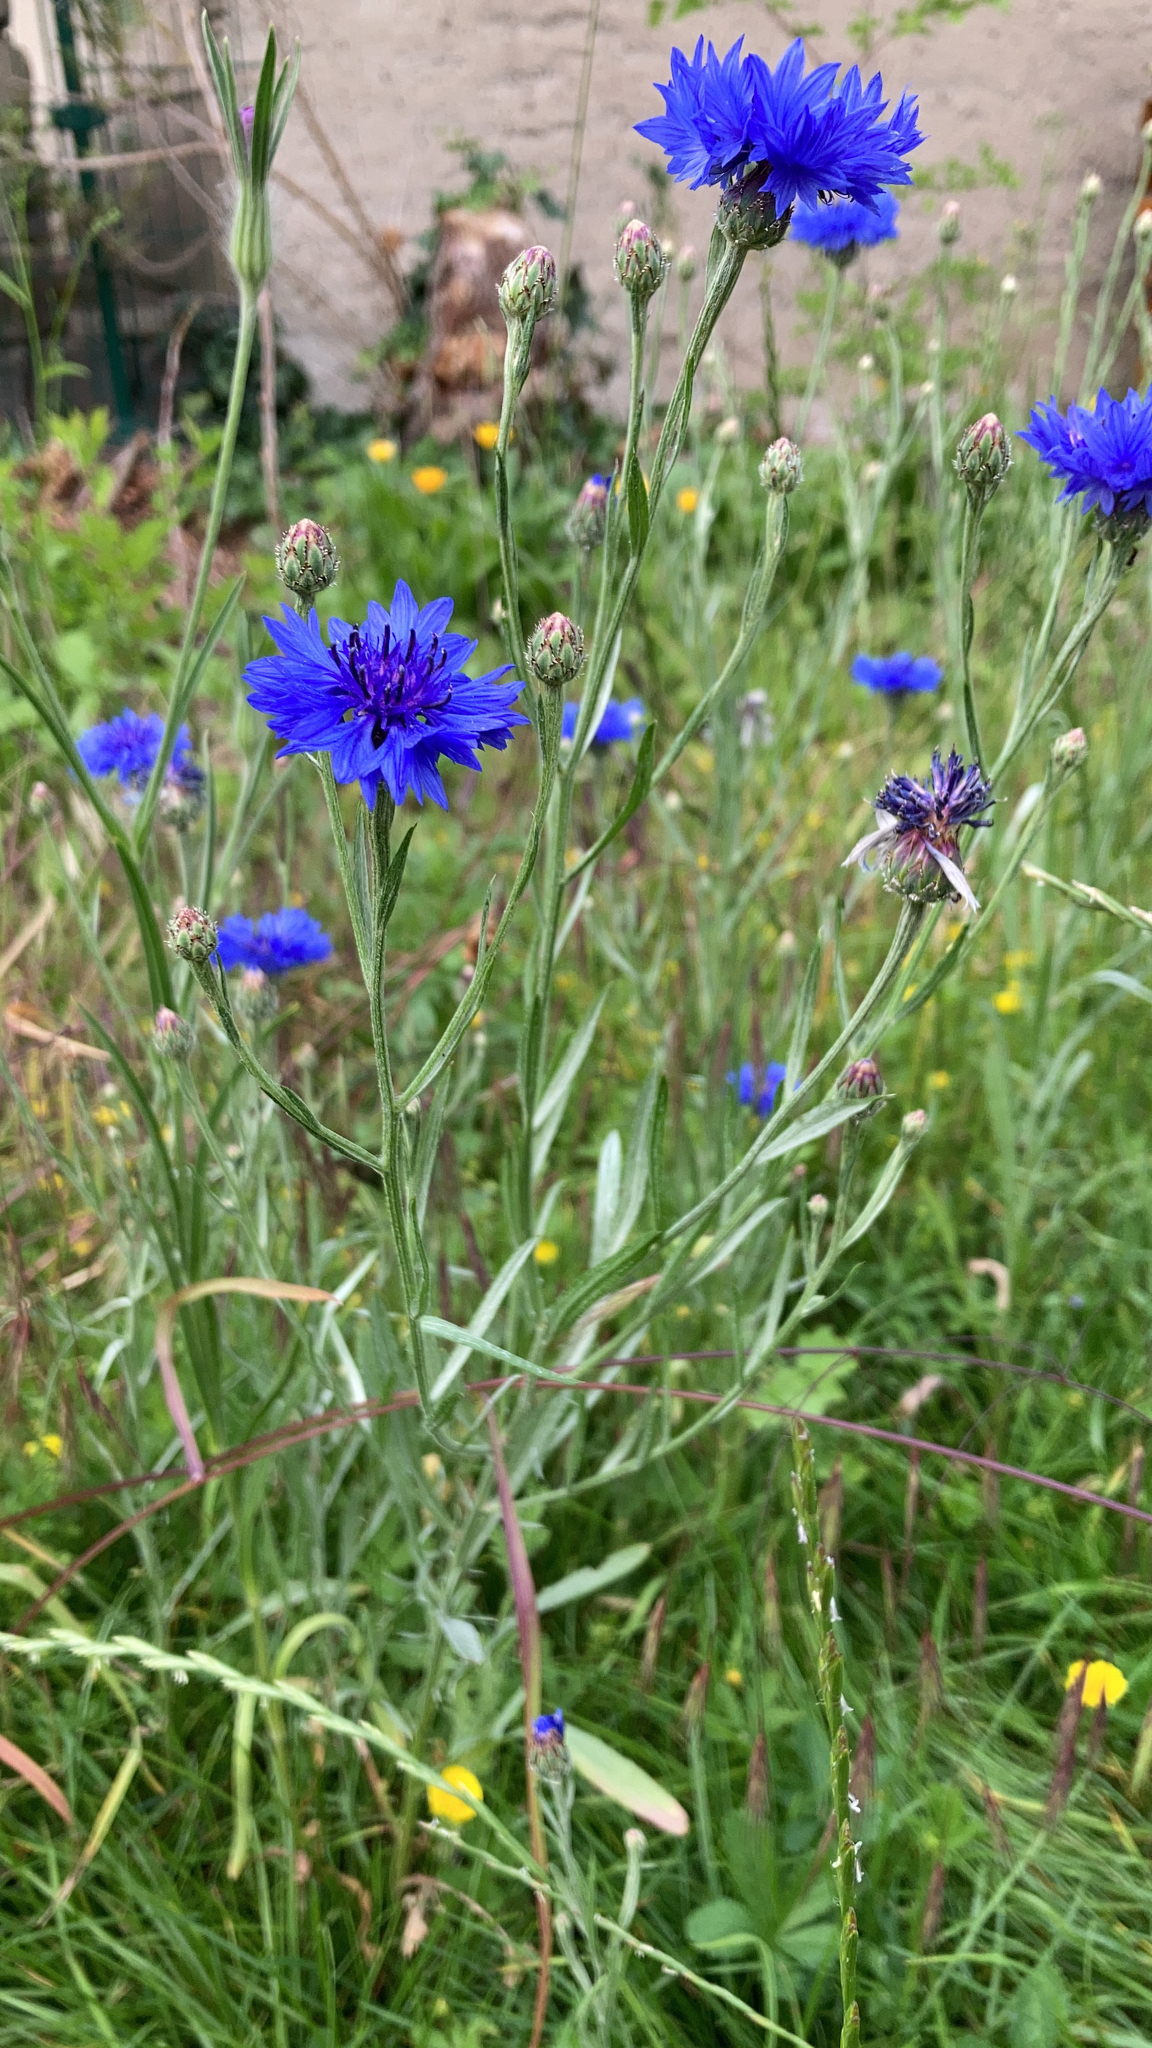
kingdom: Plantae
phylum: Tracheophyta
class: Magnoliopsida
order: Asterales
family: Asteraceae
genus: Centaurea
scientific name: Centaurea cyanus
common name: Cornflower
